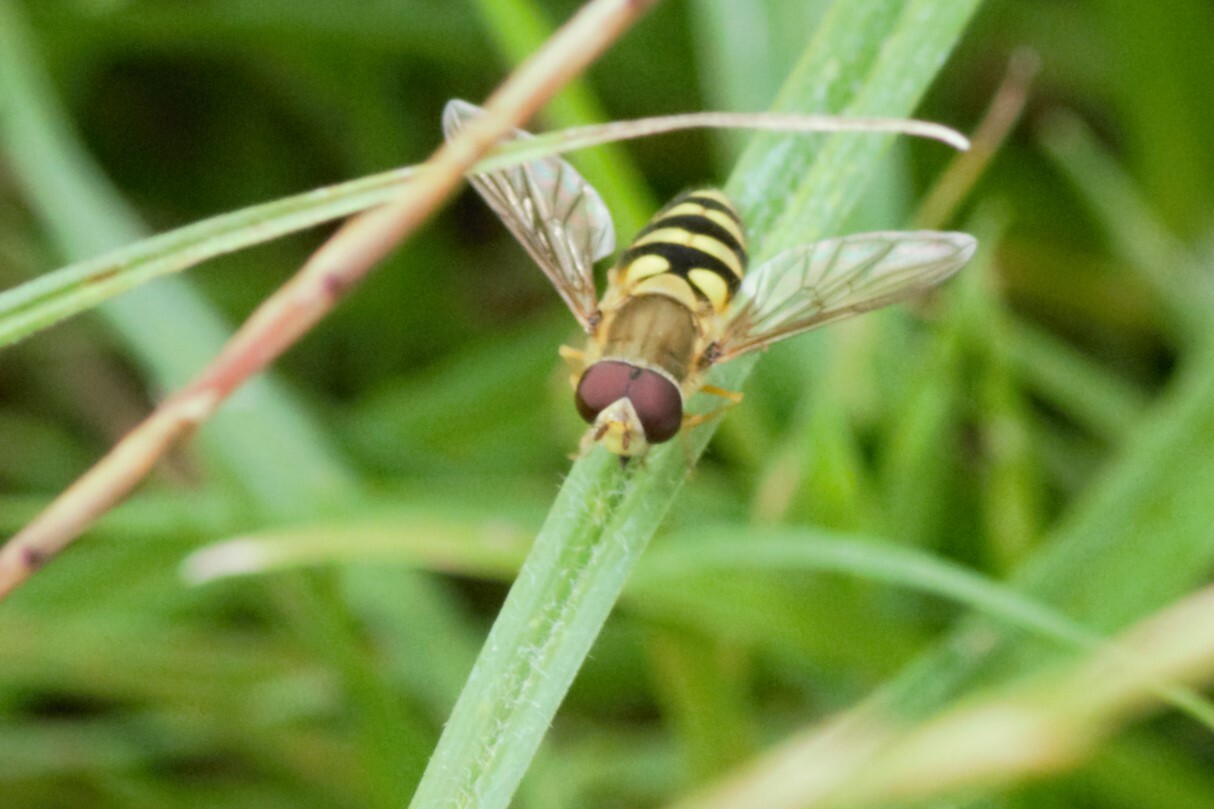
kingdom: Animalia
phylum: Arthropoda
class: Insecta
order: Diptera
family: Syrphidae
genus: Syrphus
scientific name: Syrphus
